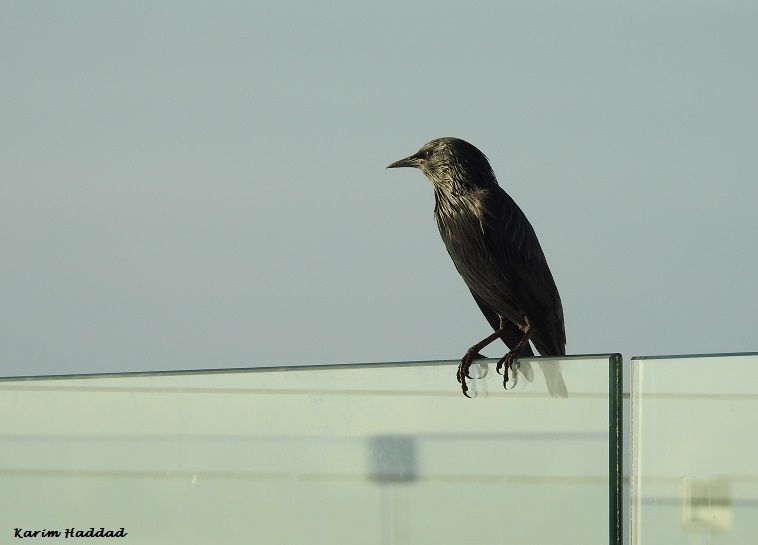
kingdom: Animalia
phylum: Chordata
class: Aves
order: Passeriformes
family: Sturnidae
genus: Sturnus
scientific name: Sturnus unicolor
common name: Spotless starling
